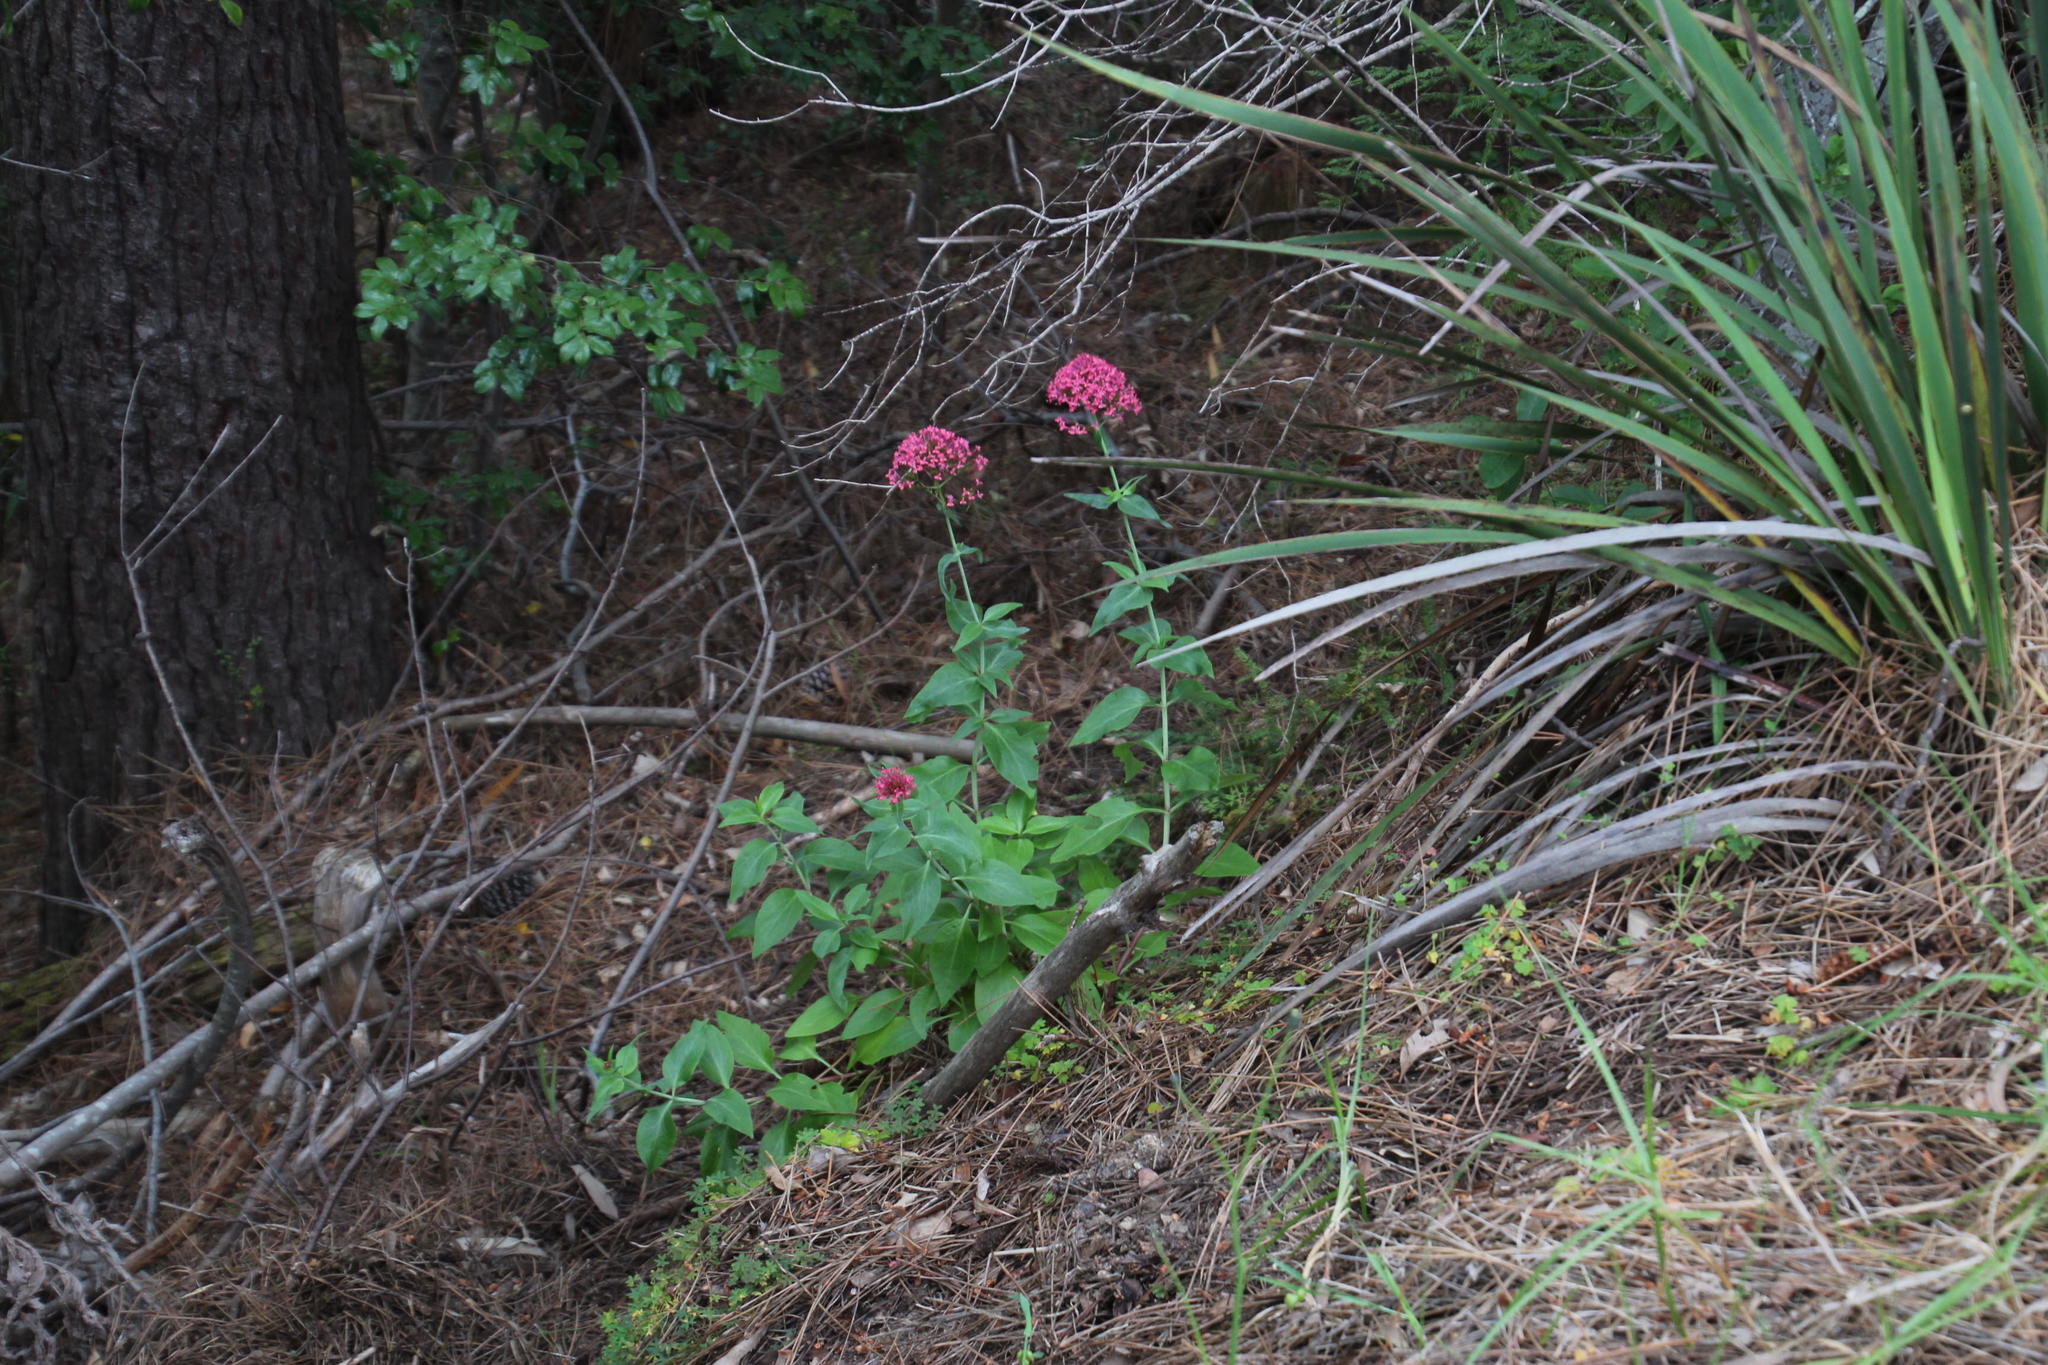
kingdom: Plantae
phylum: Tracheophyta
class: Magnoliopsida
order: Dipsacales
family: Caprifoliaceae
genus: Centranthus
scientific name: Centranthus ruber
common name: Red valerian
